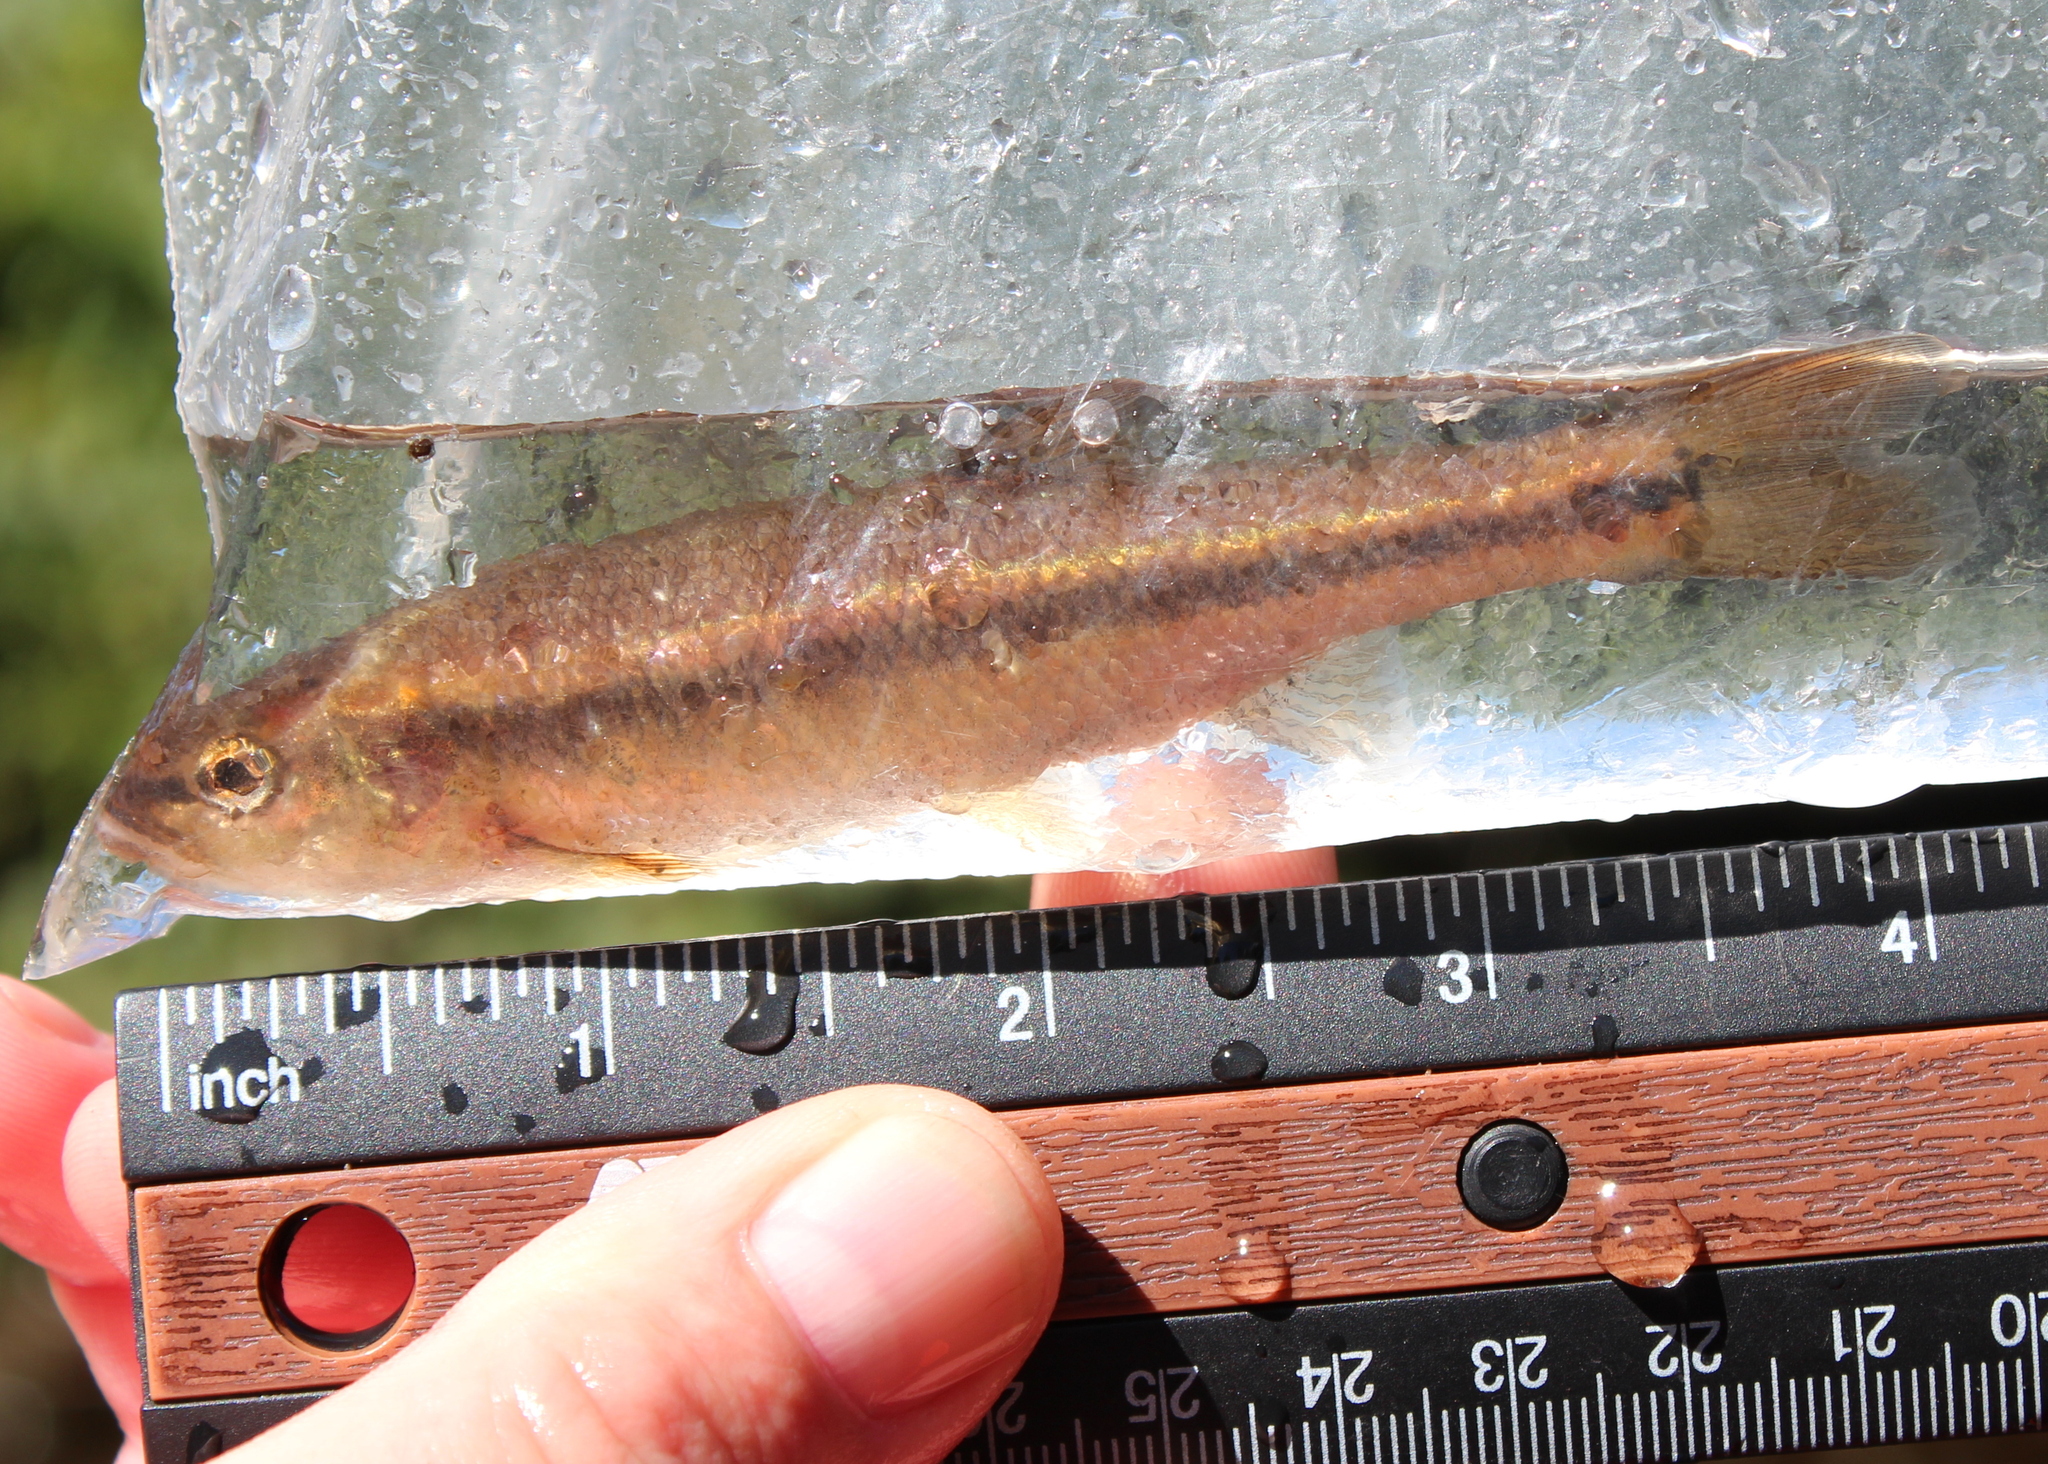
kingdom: Animalia
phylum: Chordata
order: Cypriniformes
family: Cyprinidae
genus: Semotilus
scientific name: Semotilus atromaculatus
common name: Creek chub
